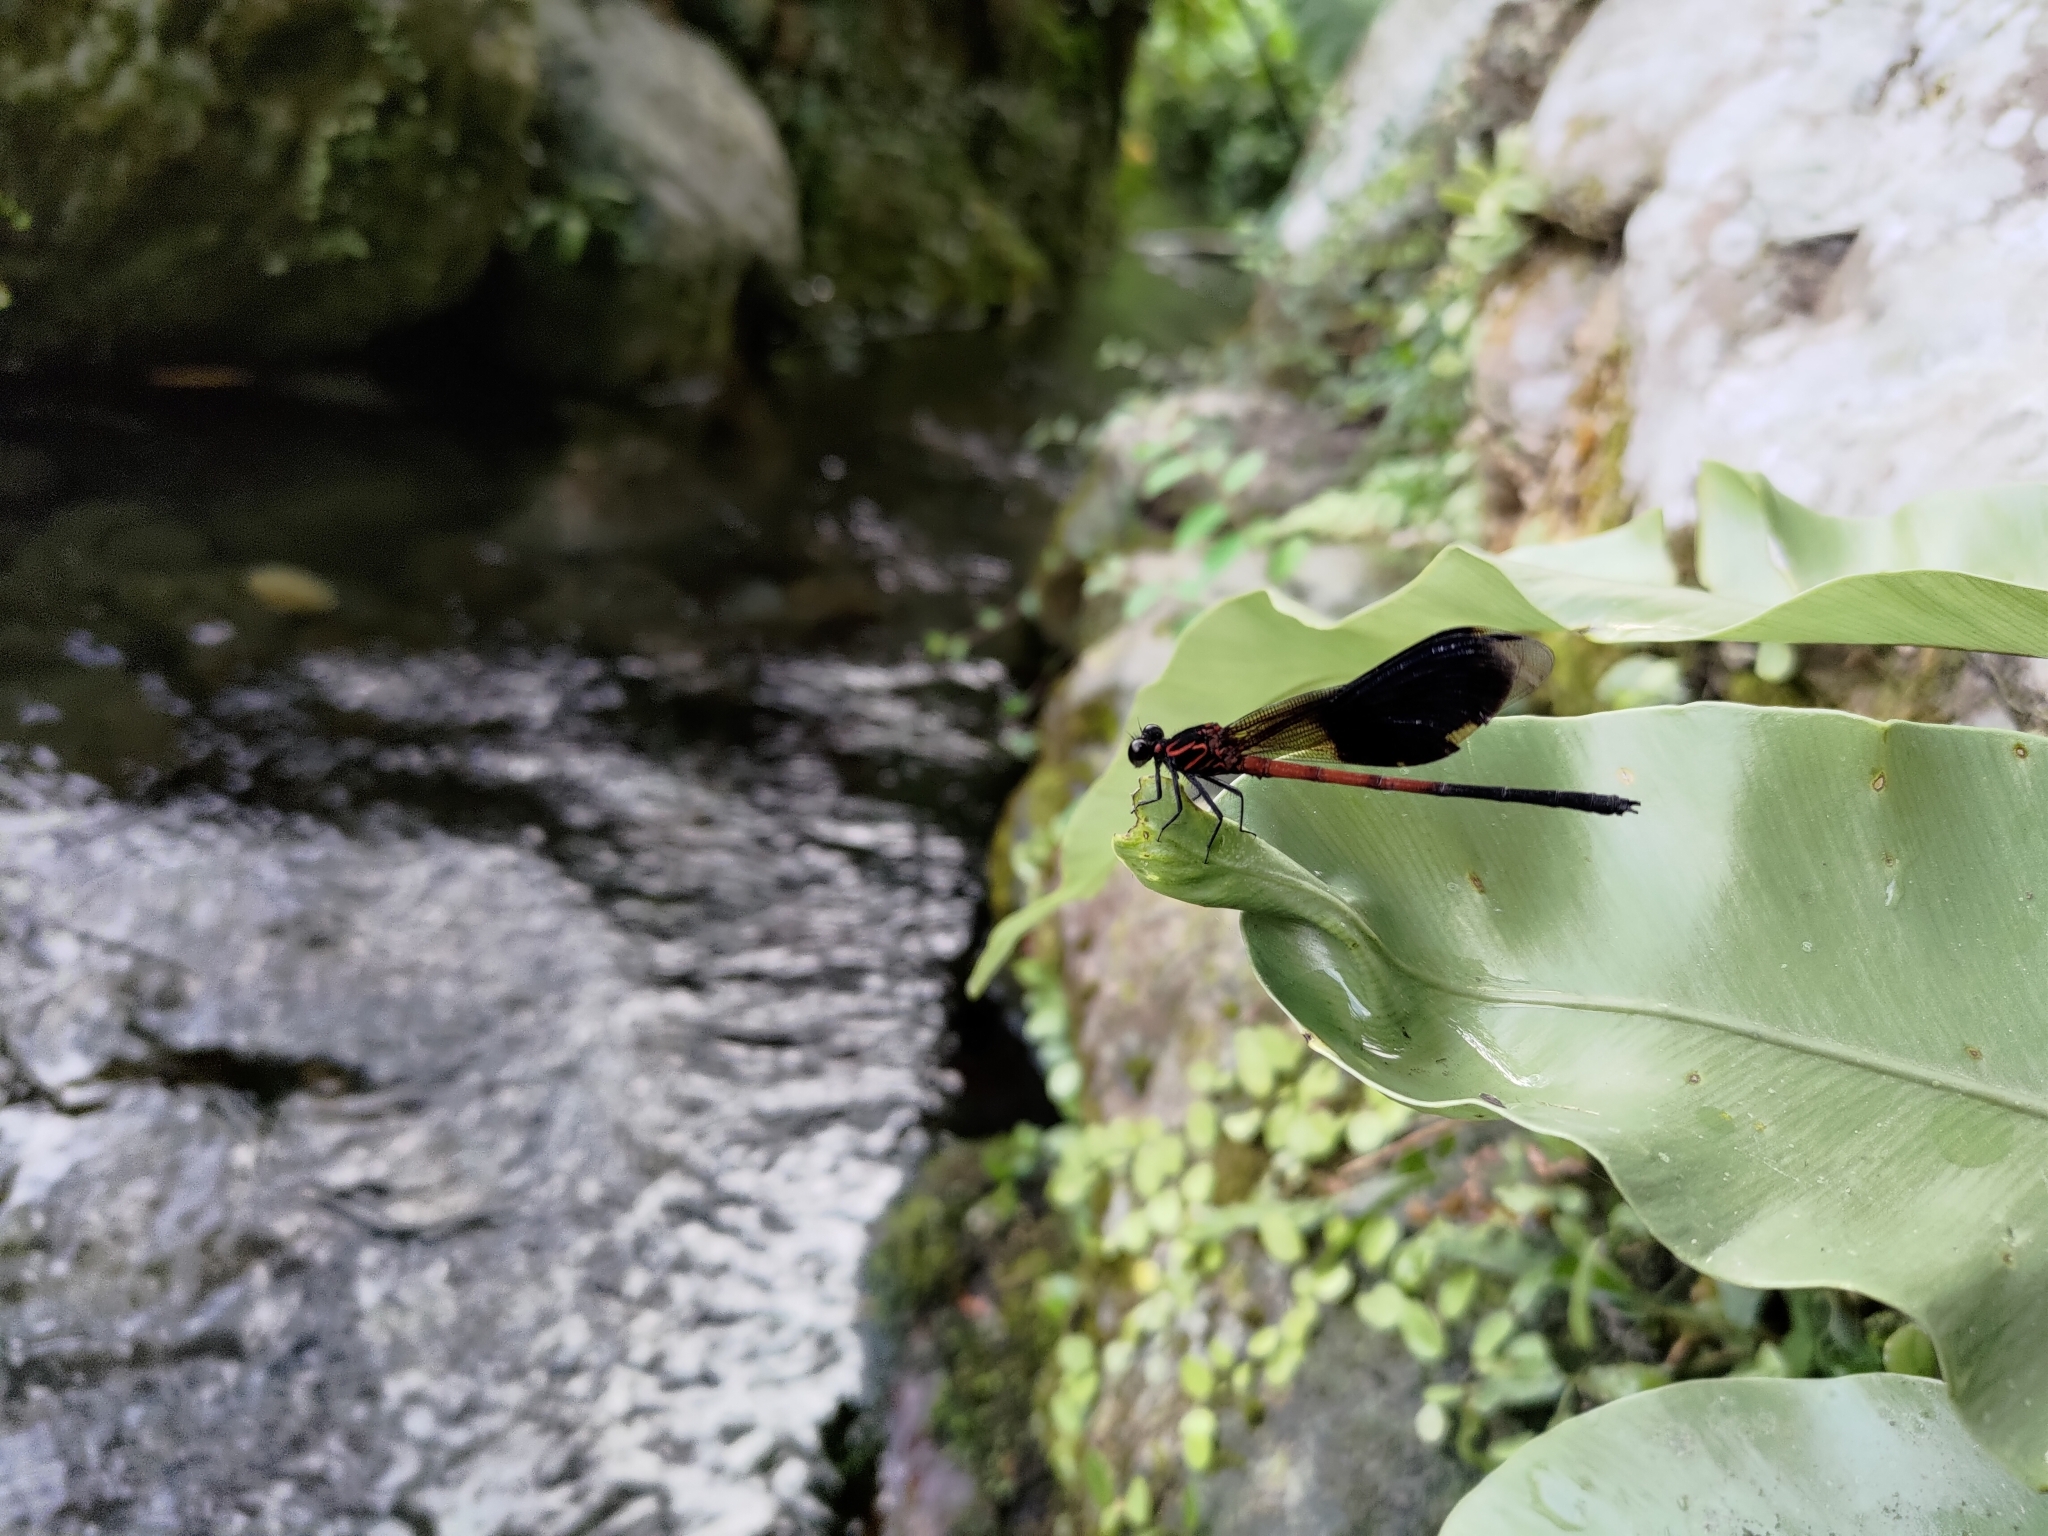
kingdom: Animalia
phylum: Arthropoda
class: Insecta
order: Odonata
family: Euphaeidae
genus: Euphaea
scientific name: Euphaea formosa
